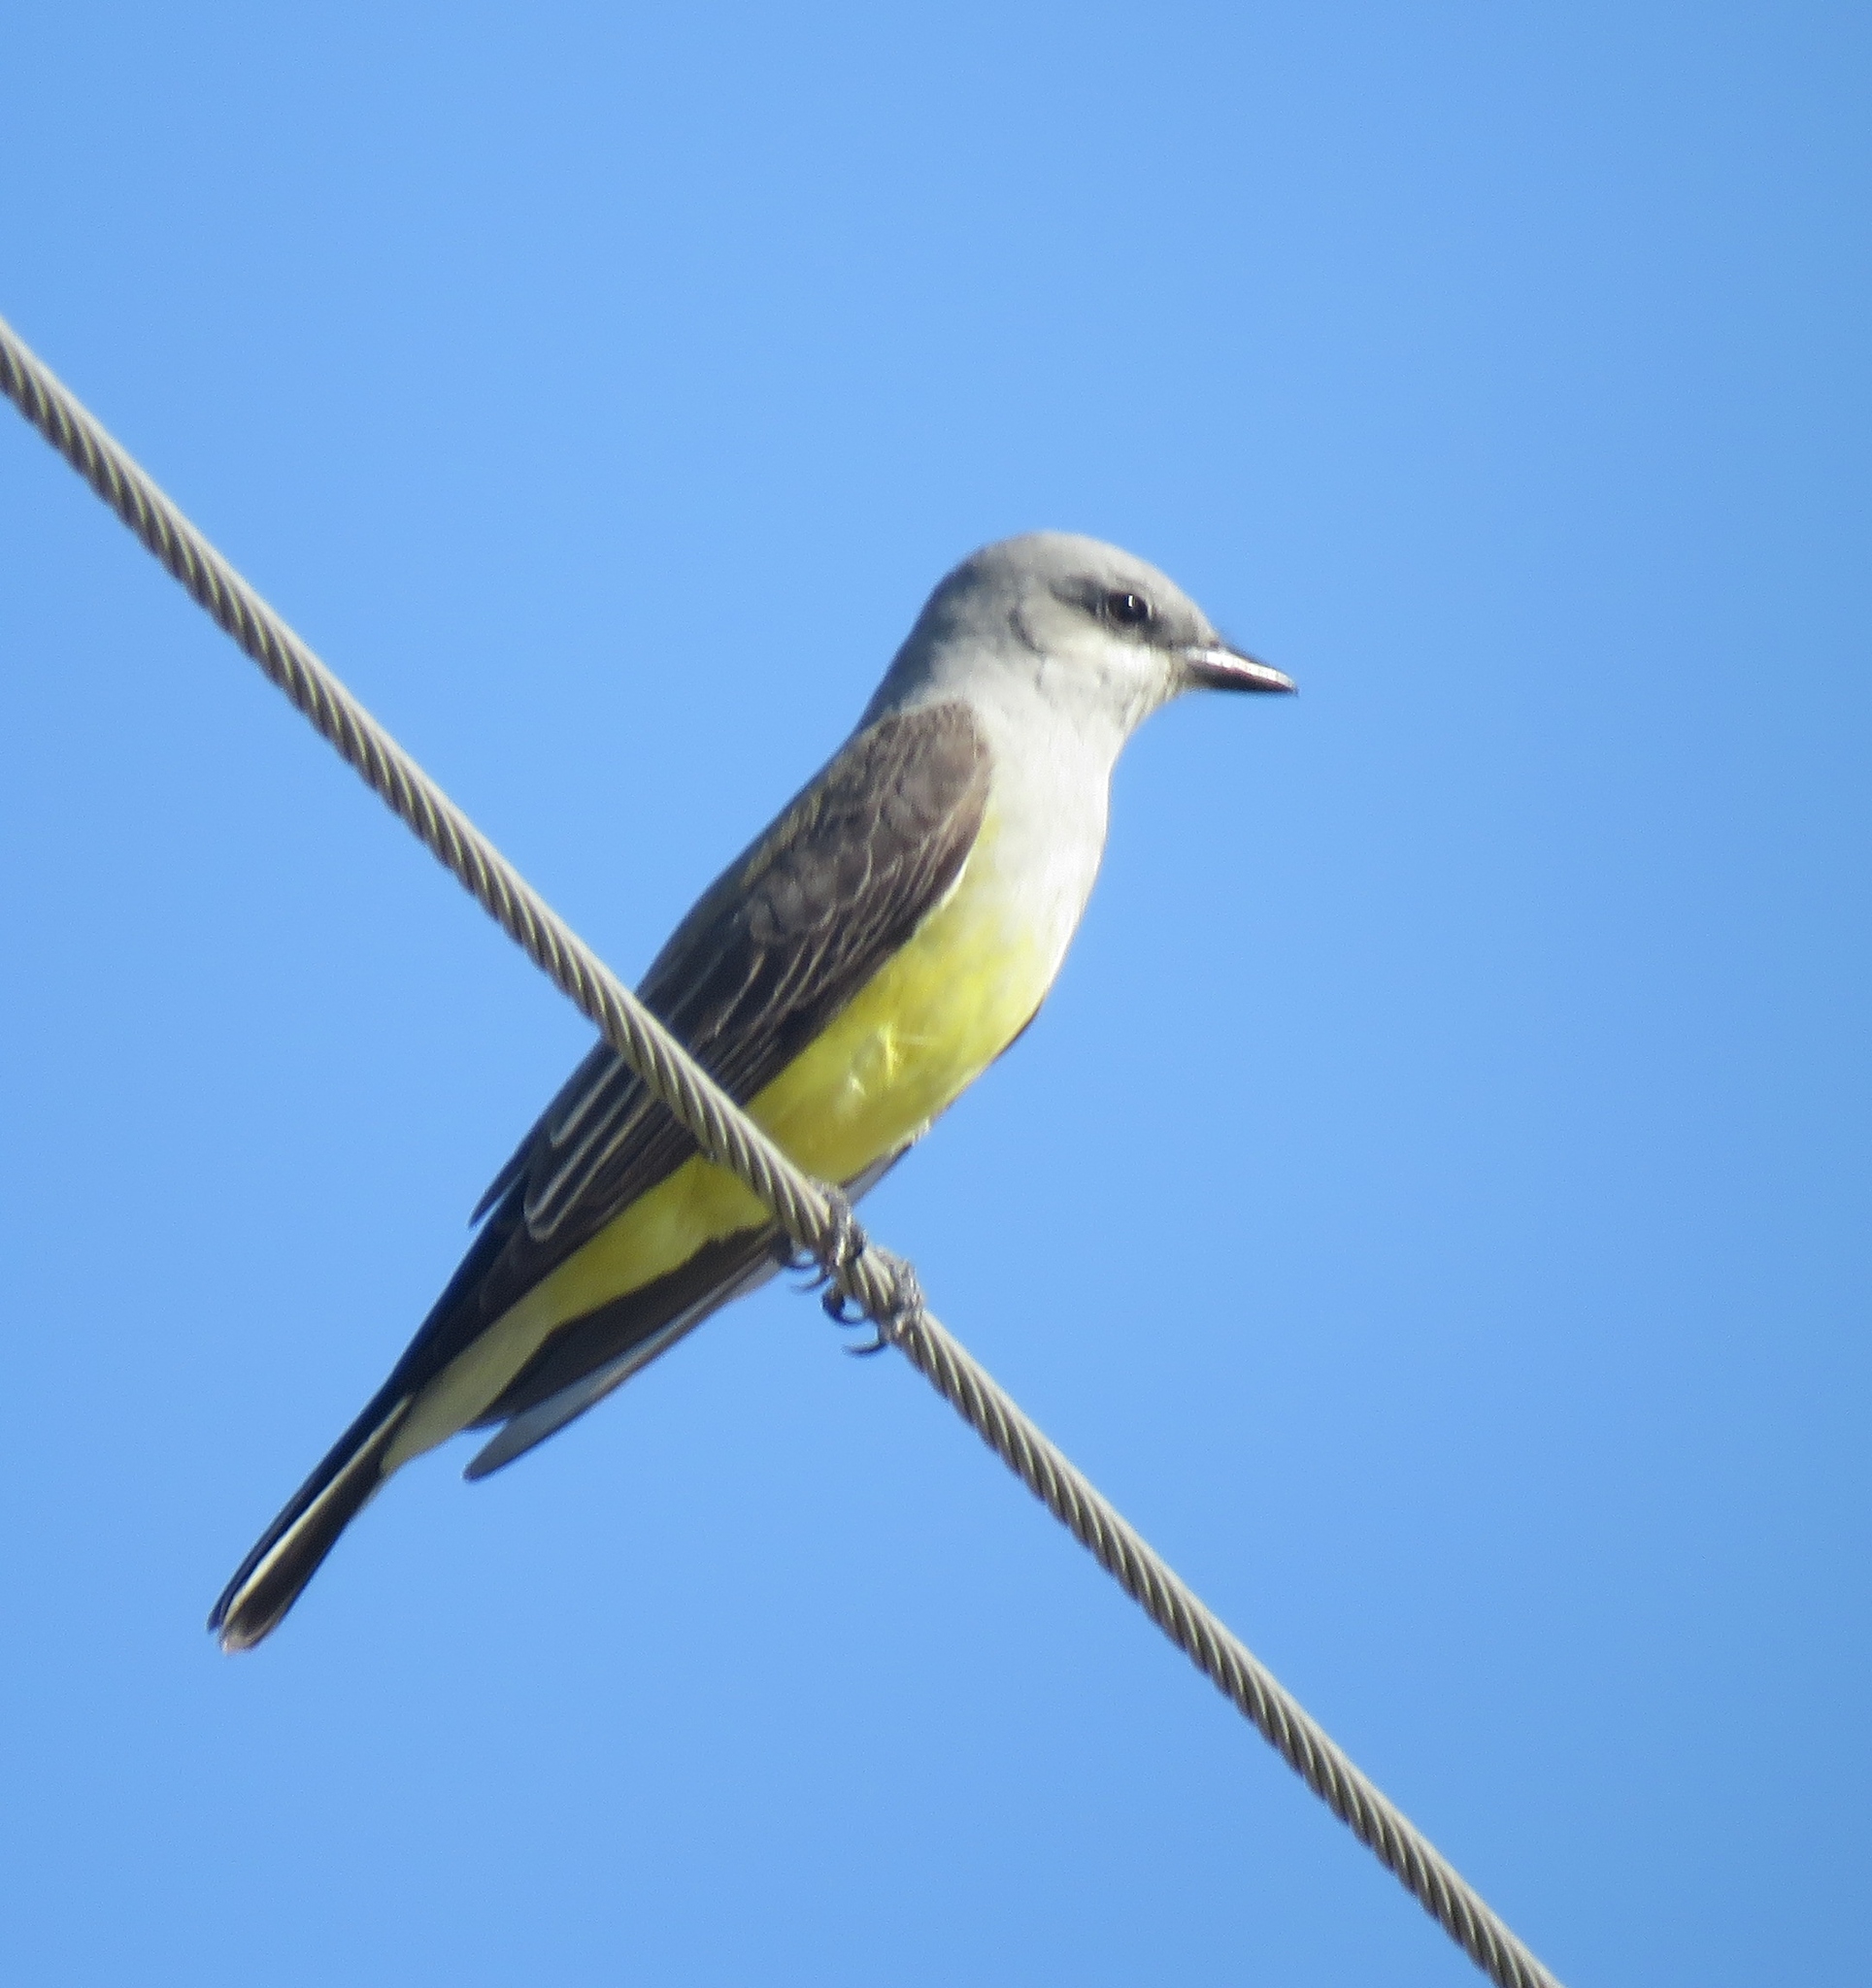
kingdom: Animalia
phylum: Chordata
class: Aves
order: Passeriformes
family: Tyrannidae
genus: Tyrannus
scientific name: Tyrannus verticalis
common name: Western kingbird
